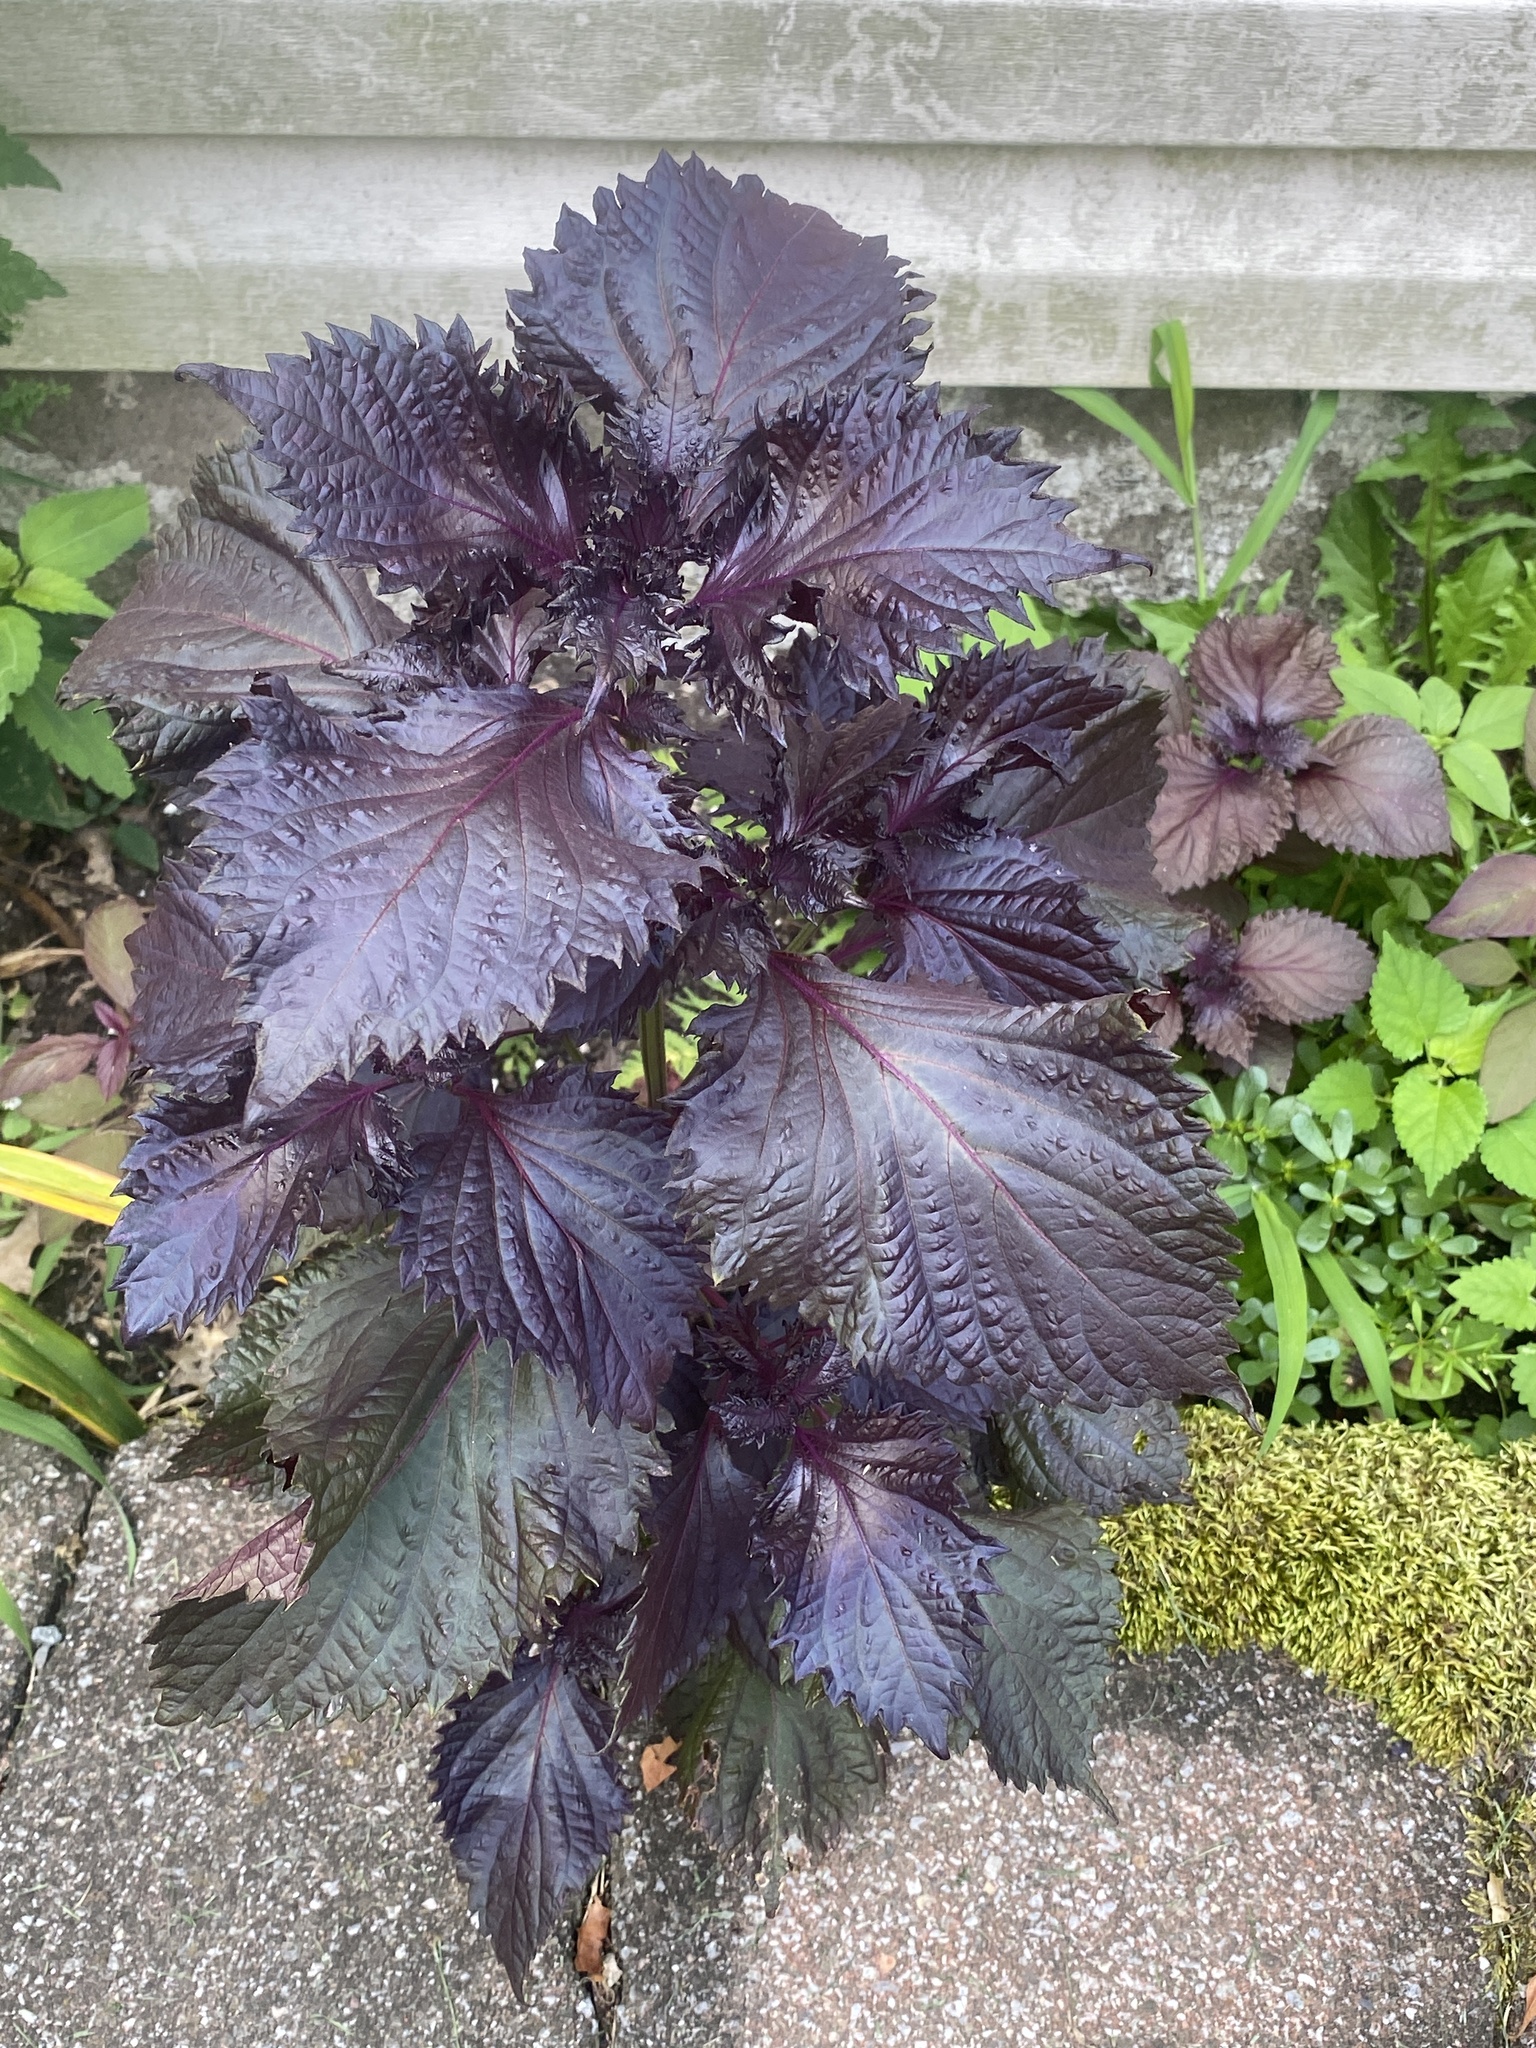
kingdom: Plantae
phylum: Tracheophyta
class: Magnoliopsida
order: Lamiales
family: Lamiaceae
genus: Perilla
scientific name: Perilla frutescens
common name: Perilla
